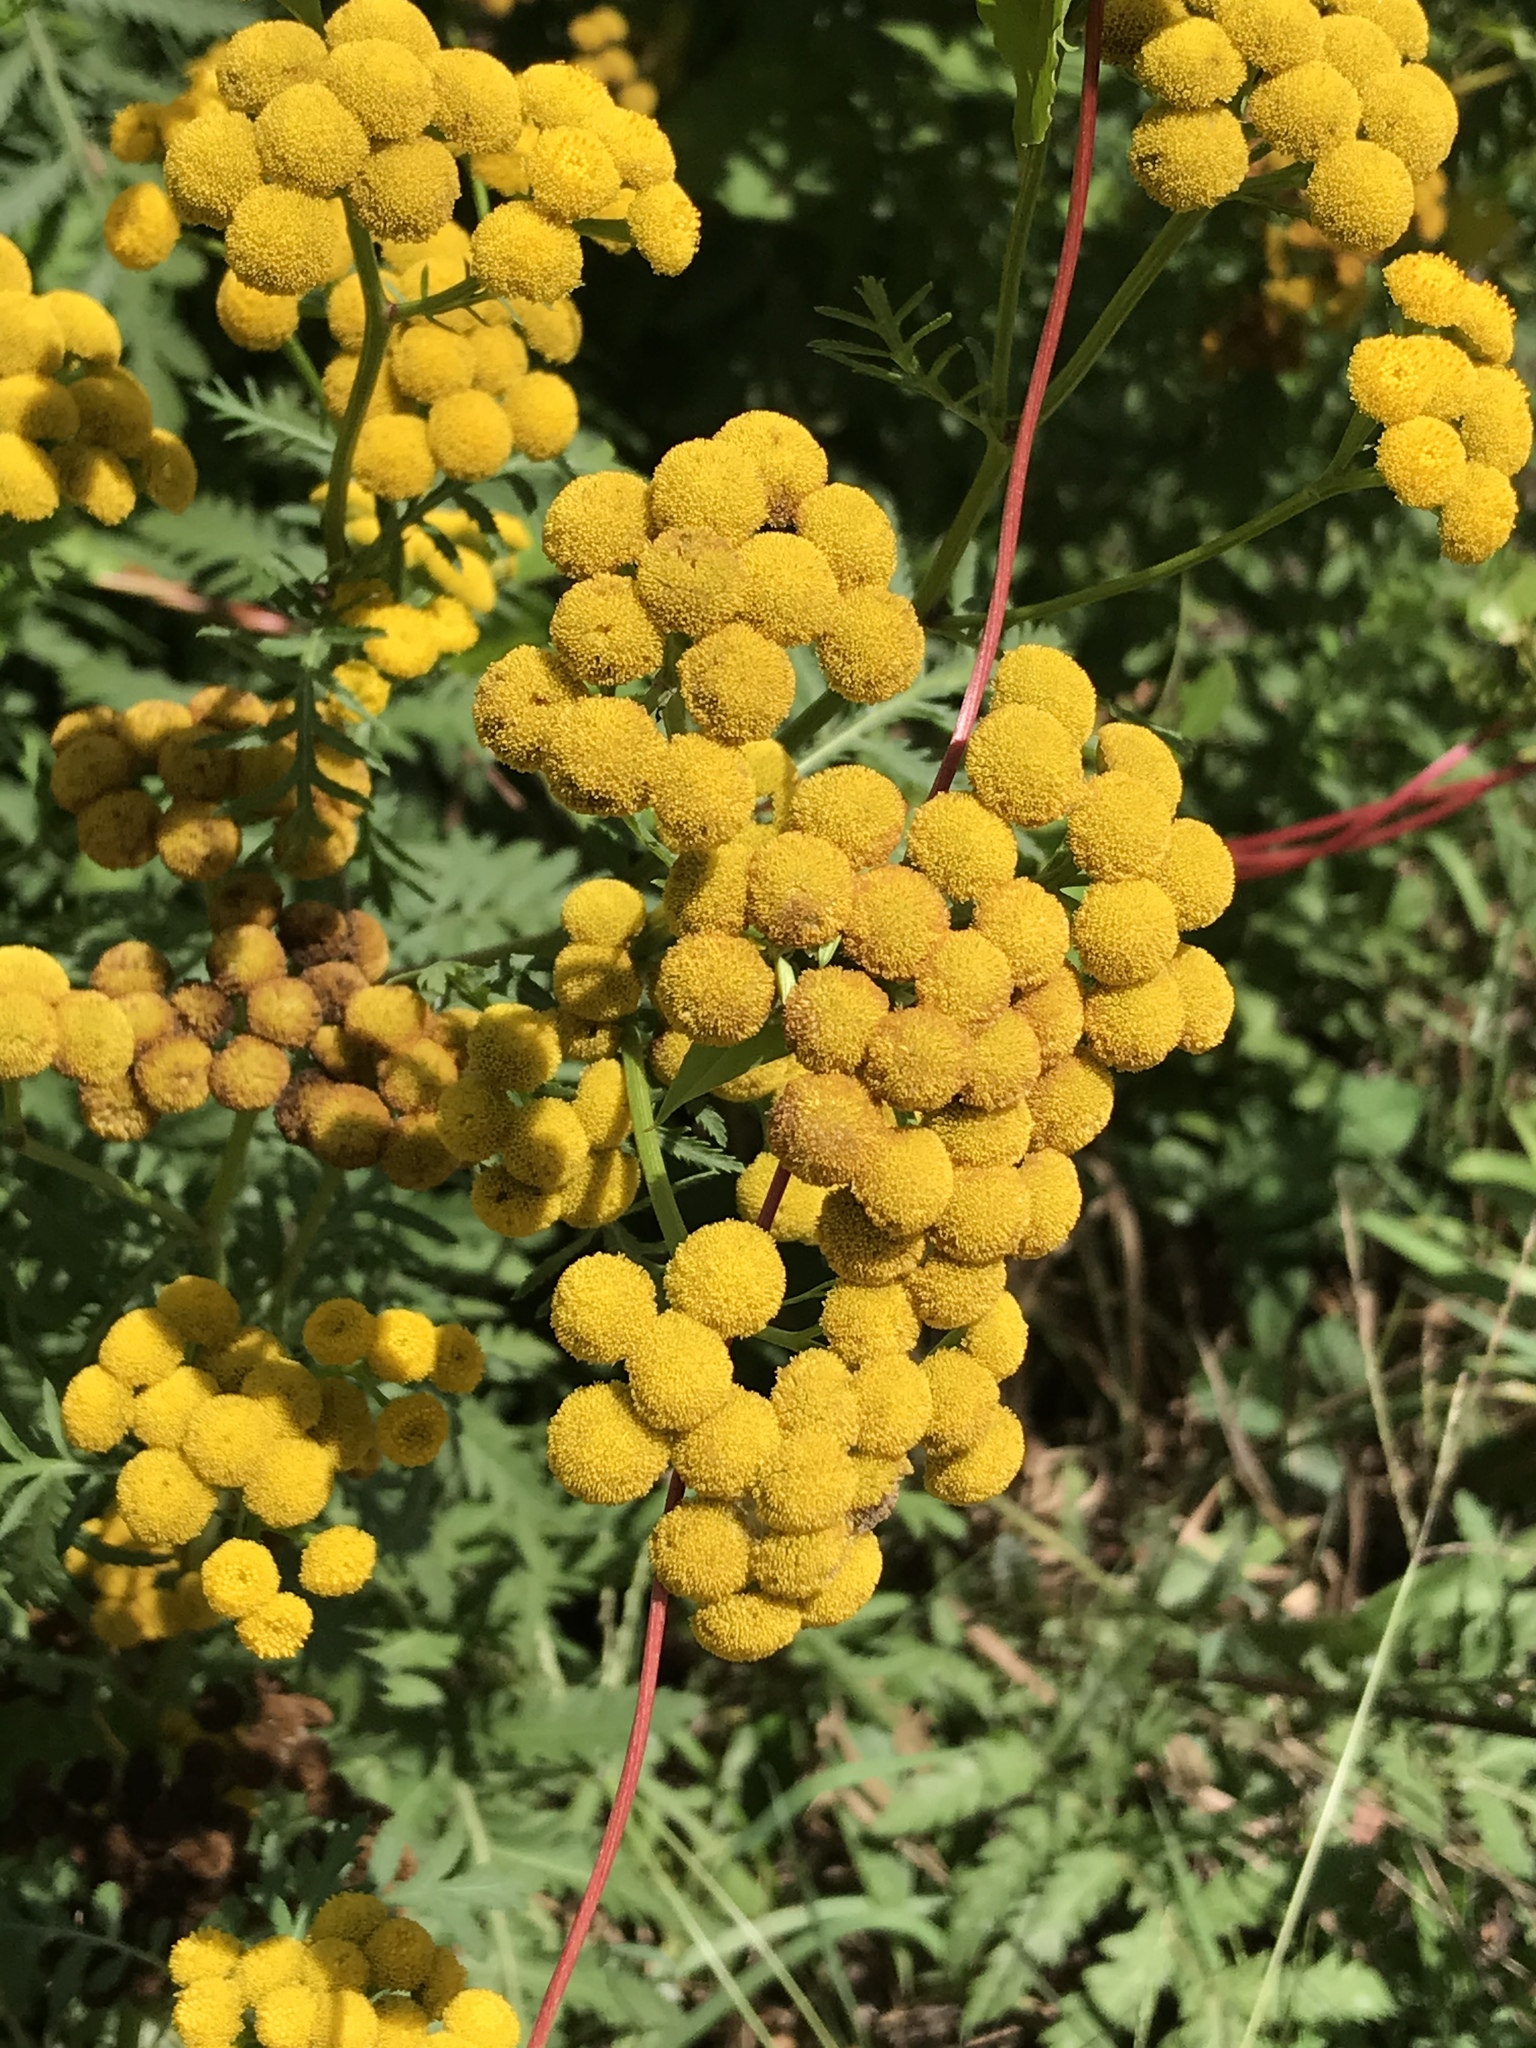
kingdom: Plantae
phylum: Tracheophyta
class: Magnoliopsida
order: Asterales
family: Asteraceae
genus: Tanacetum
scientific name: Tanacetum vulgare
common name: Common tansy
